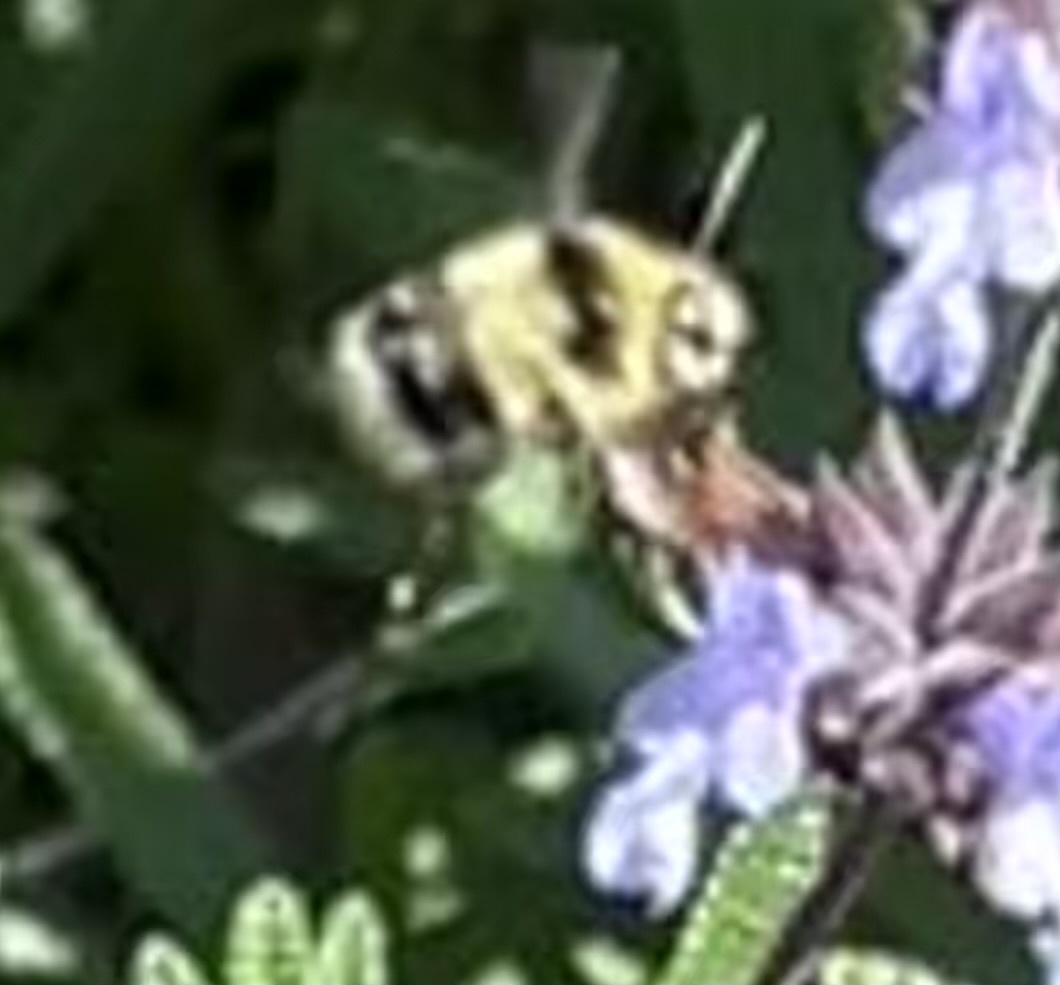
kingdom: Animalia
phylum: Arthropoda
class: Insecta
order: Hymenoptera
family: Apidae
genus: Bombus
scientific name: Bombus melanopygus
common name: Black tail bumble bee
